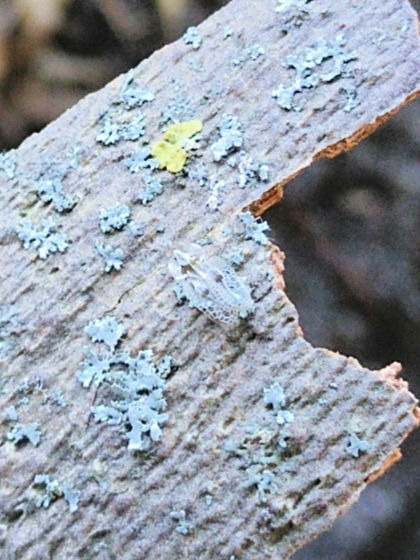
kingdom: Animalia
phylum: Arthropoda
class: Insecta
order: Hemiptera
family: Tingidae
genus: Corythucha
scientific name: Corythucha ciliata
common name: Sycamore lace bug
